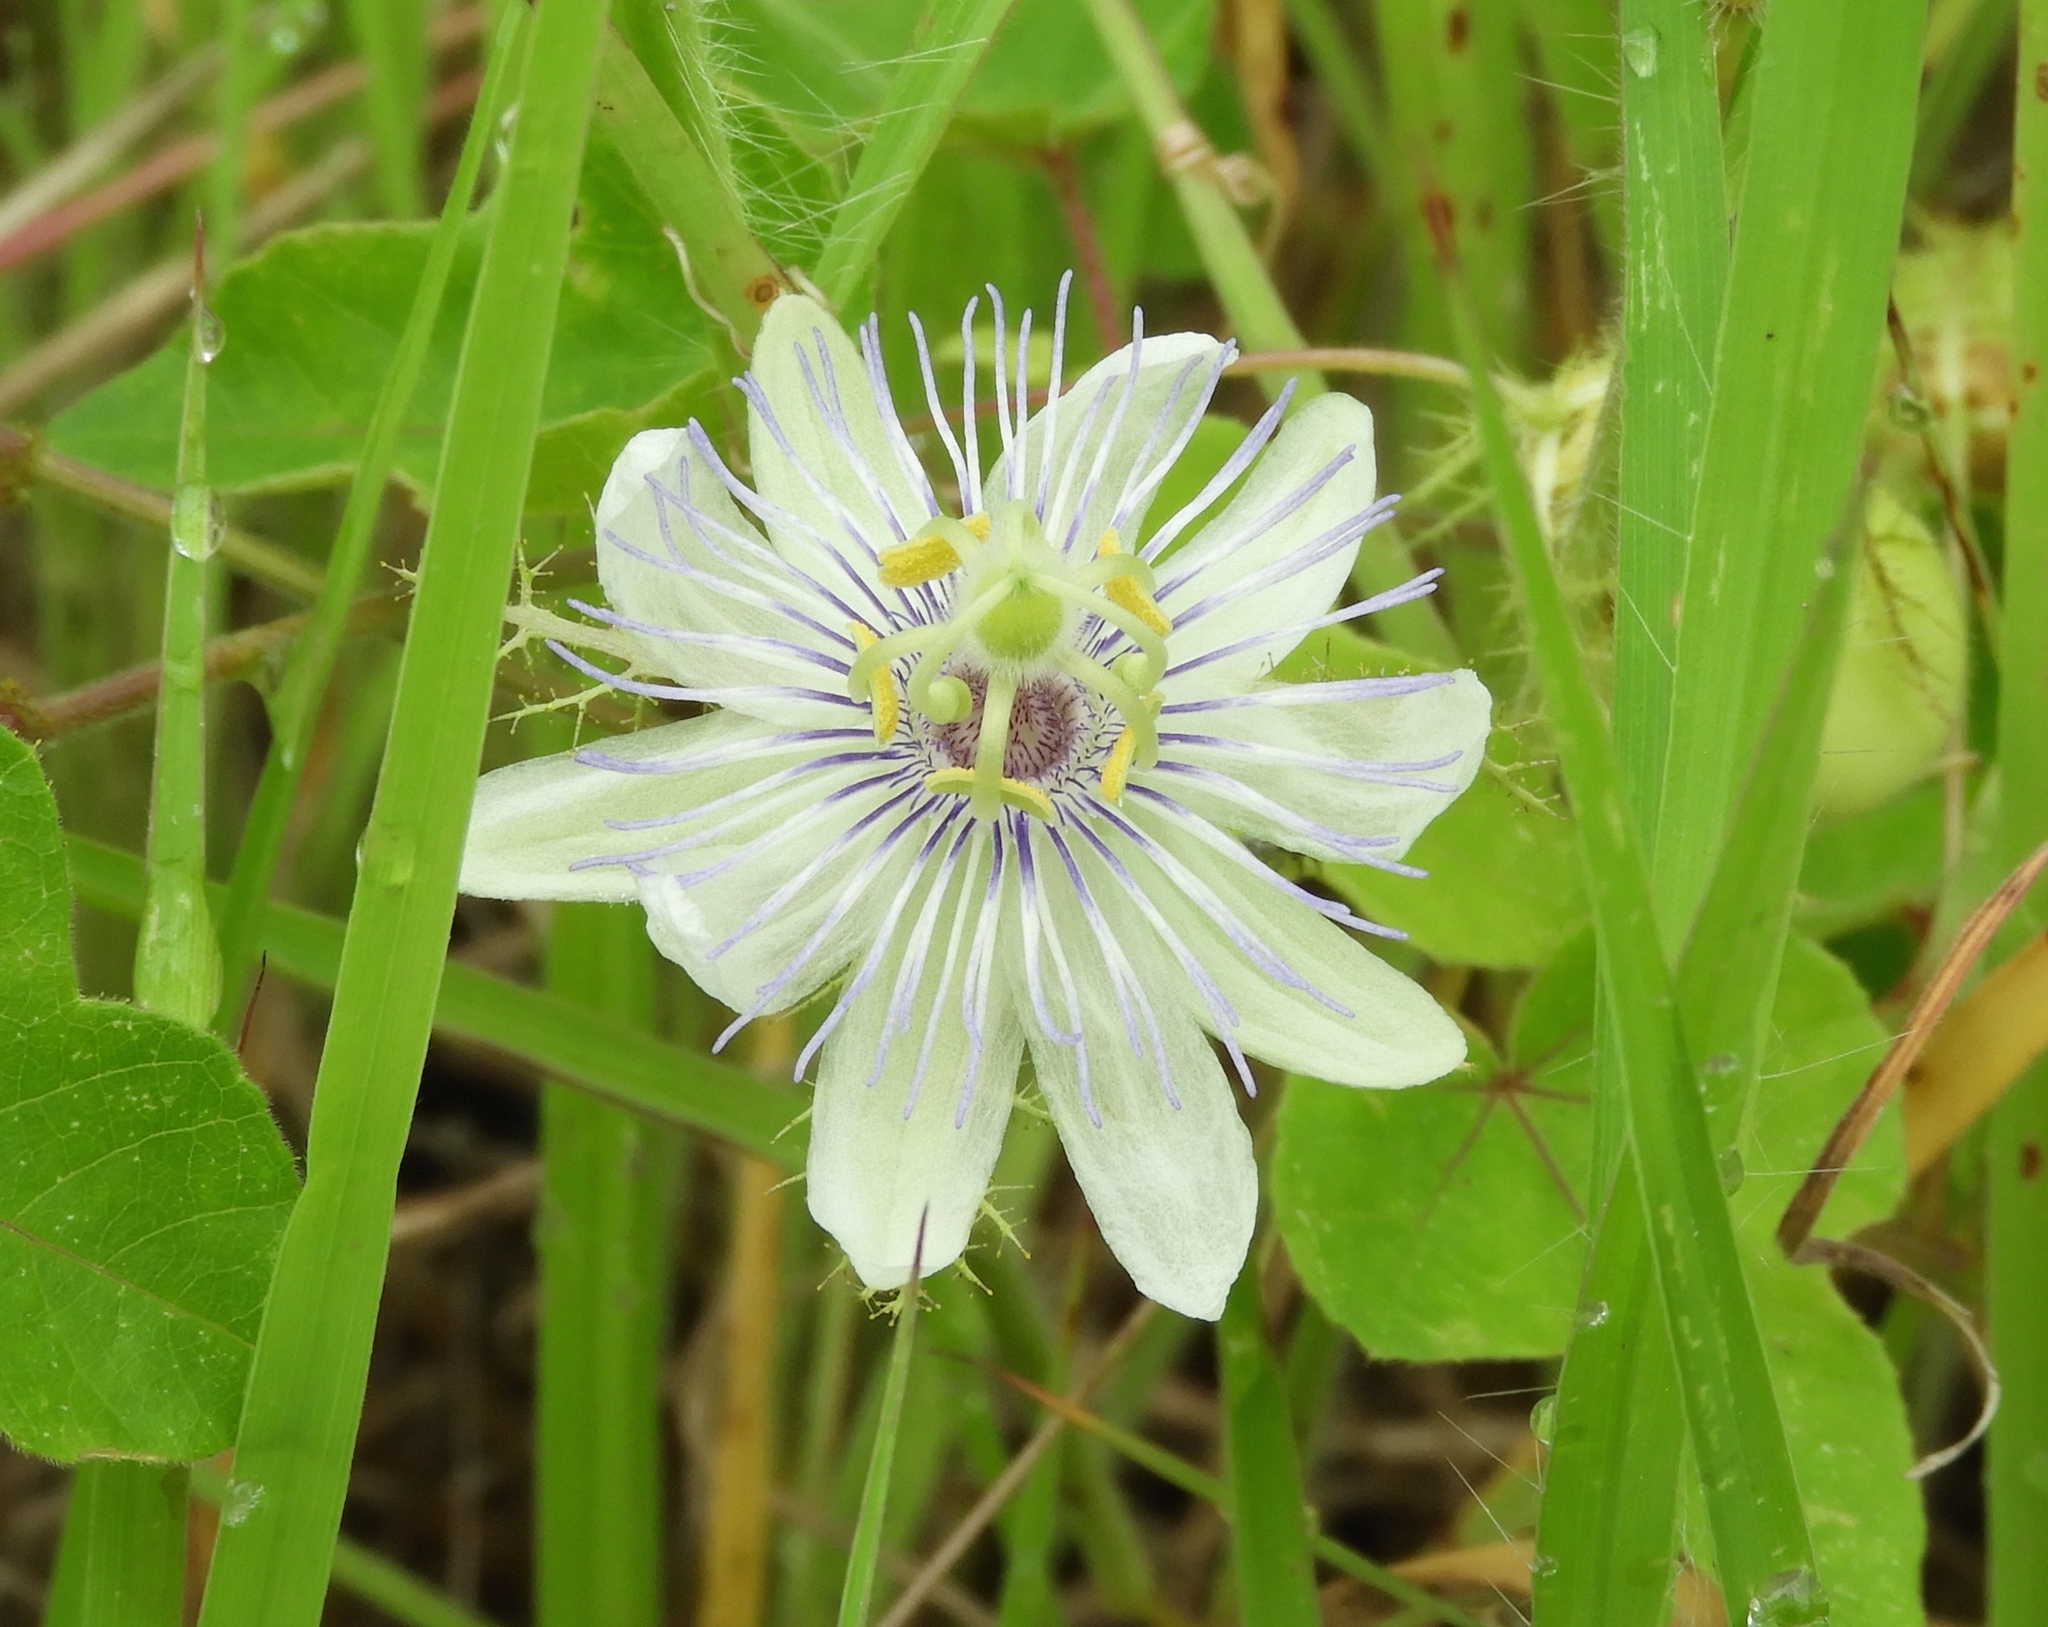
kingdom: Plantae
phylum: Tracheophyta
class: Magnoliopsida
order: Malpighiales
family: Passifloraceae
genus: Passiflora
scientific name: Passiflora foetida
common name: Fetid passionflower
